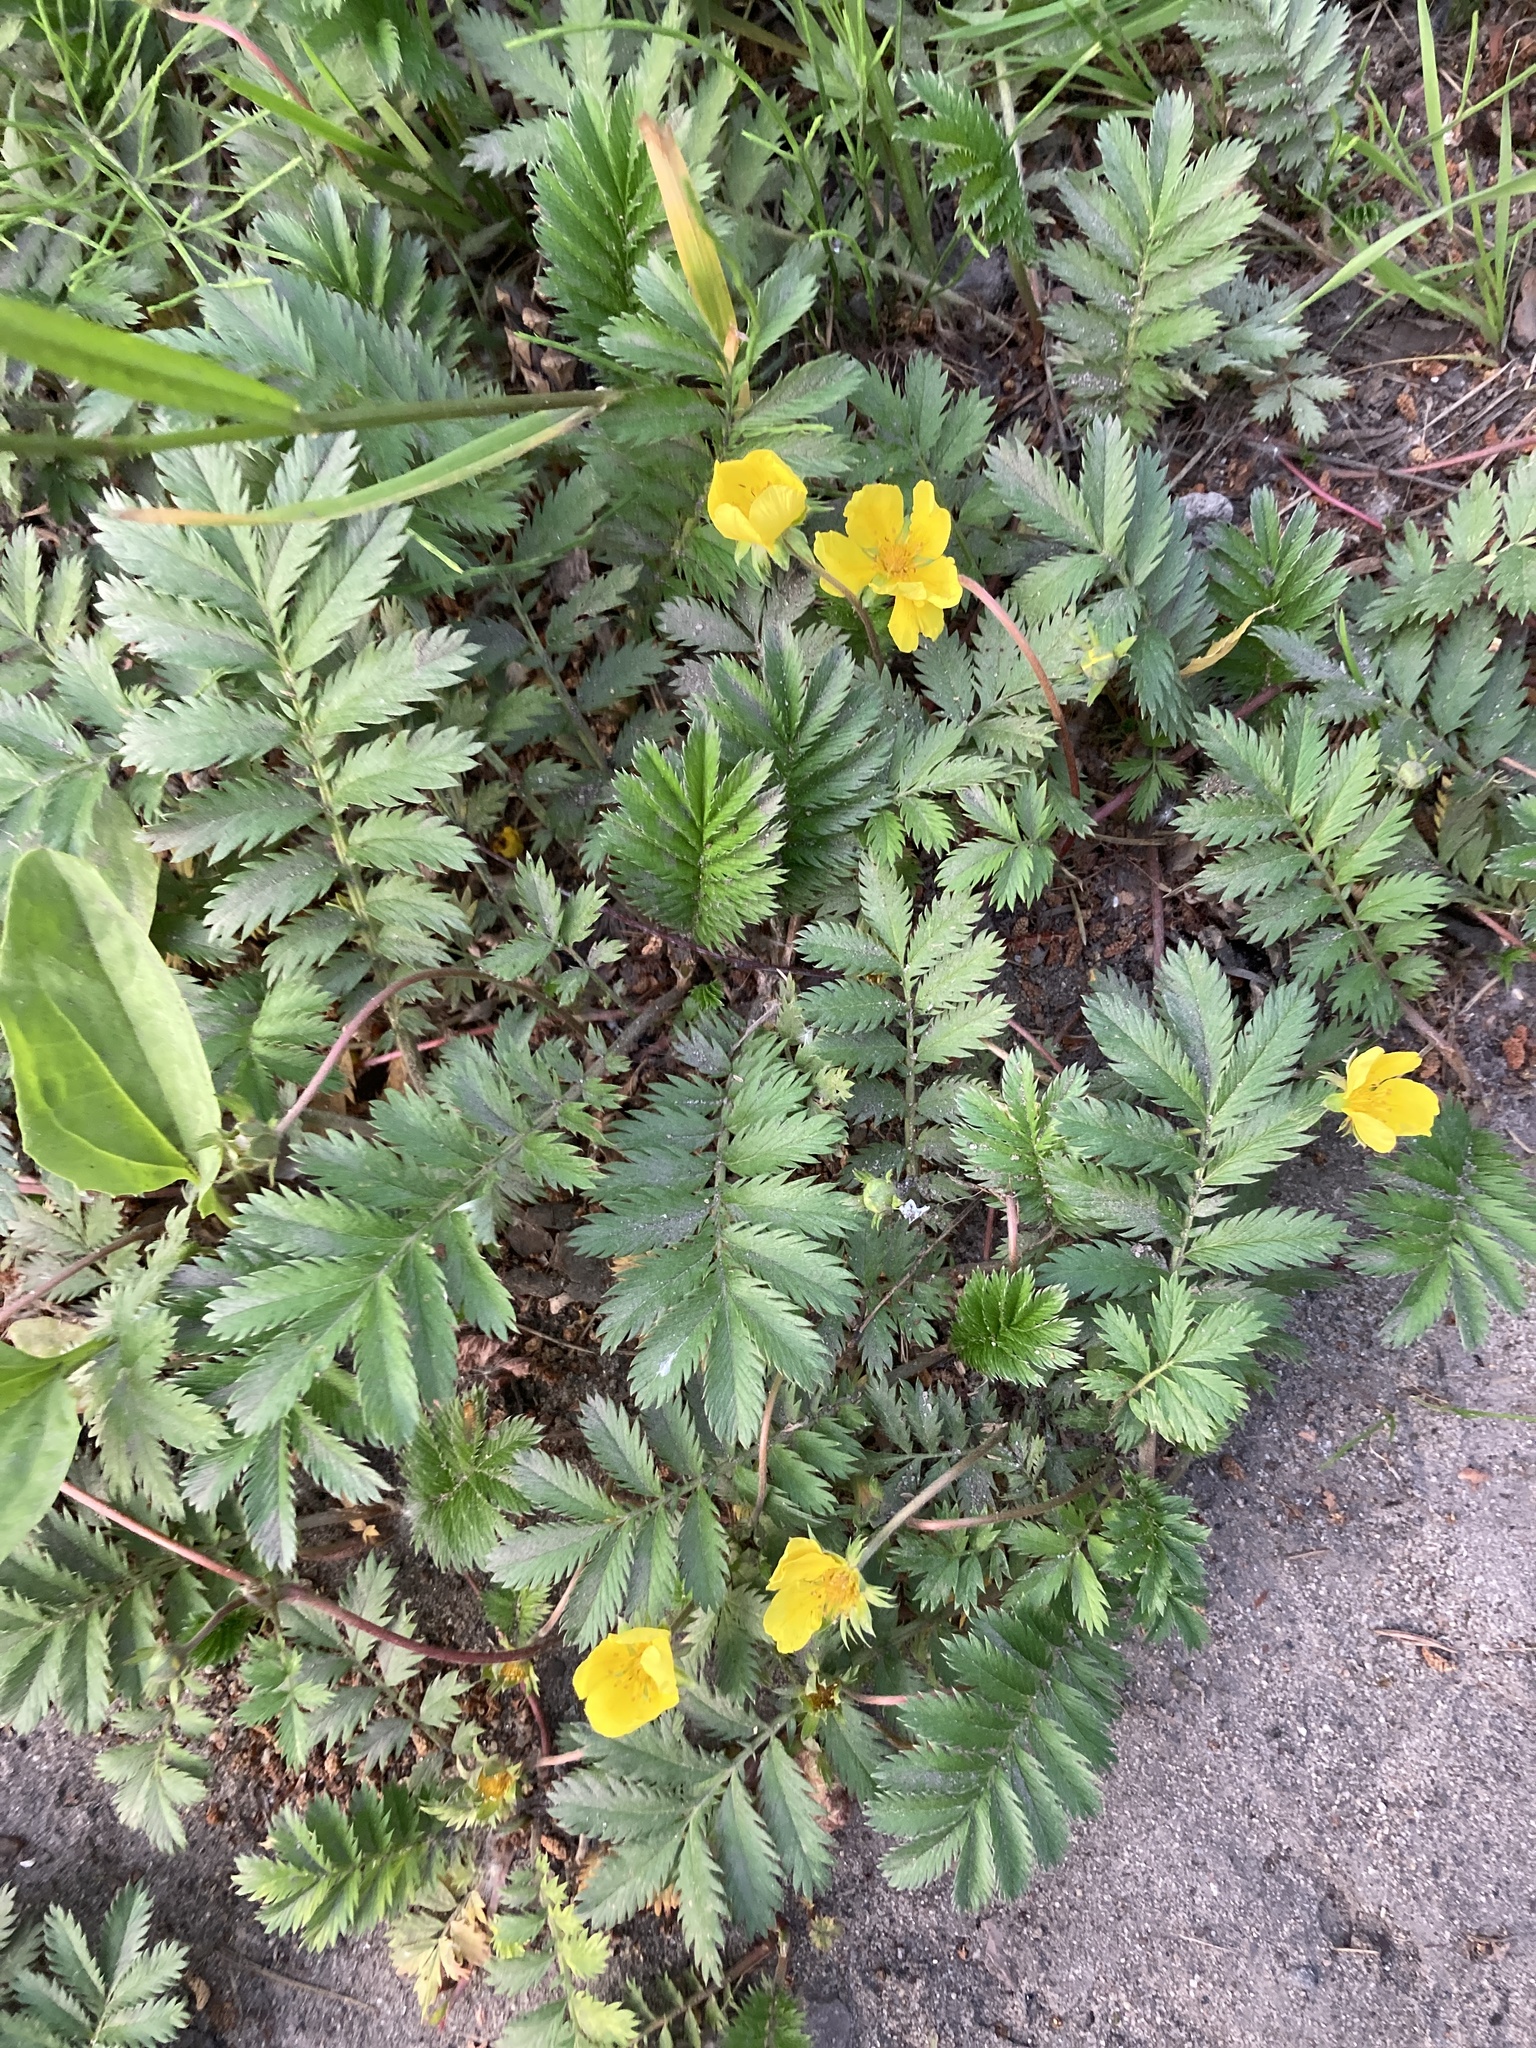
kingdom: Plantae
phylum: Tracheophyta
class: Magnoliopsida
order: Rosales
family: Rosaceae
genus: Argentina
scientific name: Argentina anserina
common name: Common silverweed
